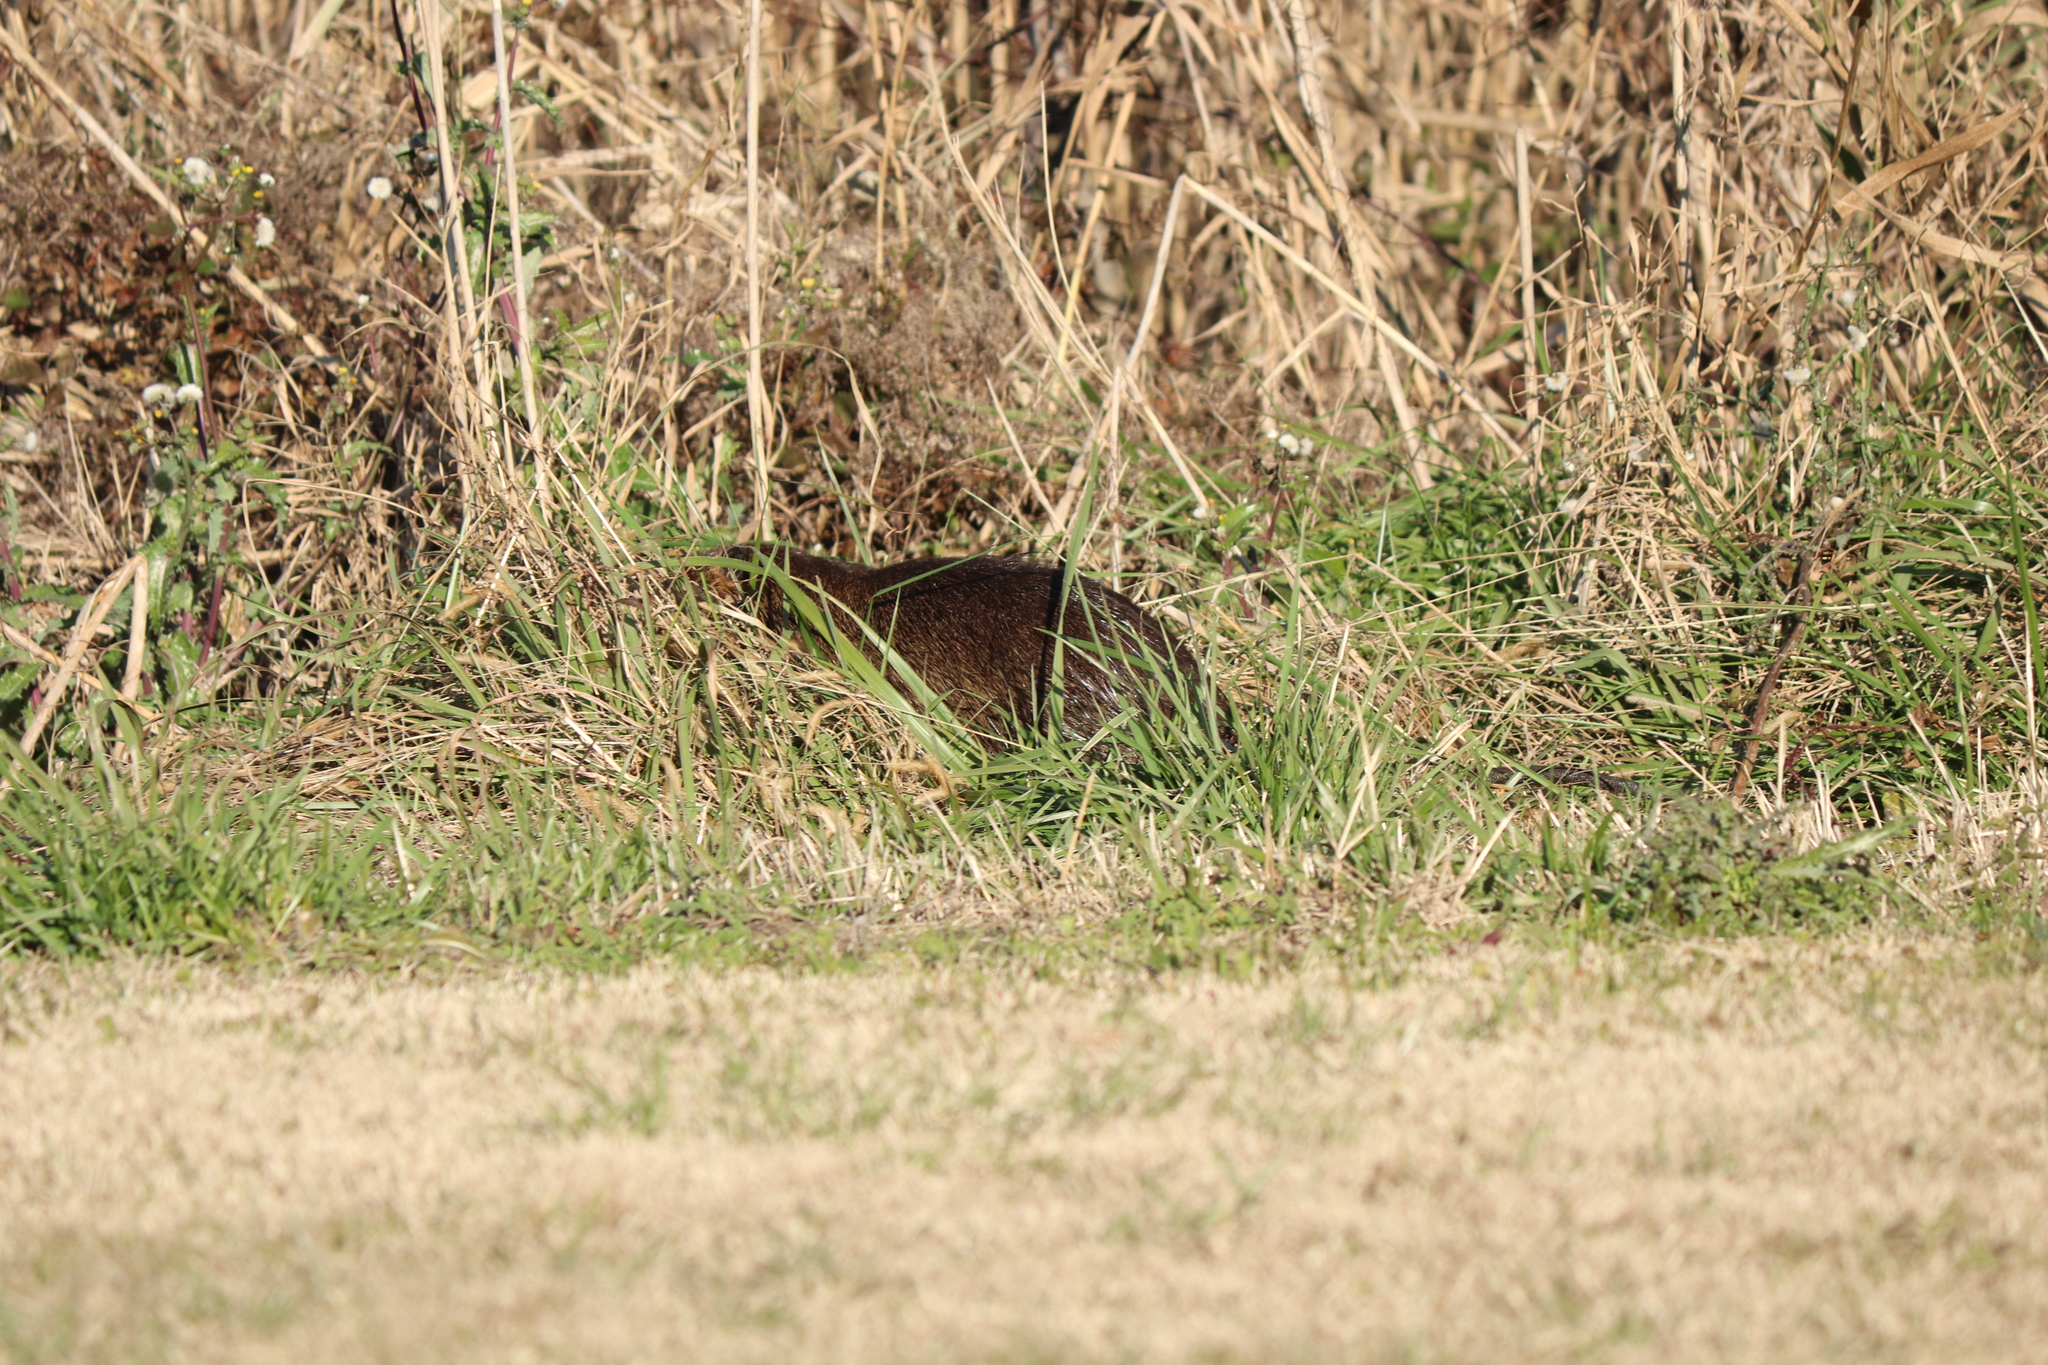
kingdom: Animalia
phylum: Chordata
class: Mammalia
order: Rodentia
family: Myocastoridae
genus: Myocastor
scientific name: Myocastor coypus
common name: Coypu
